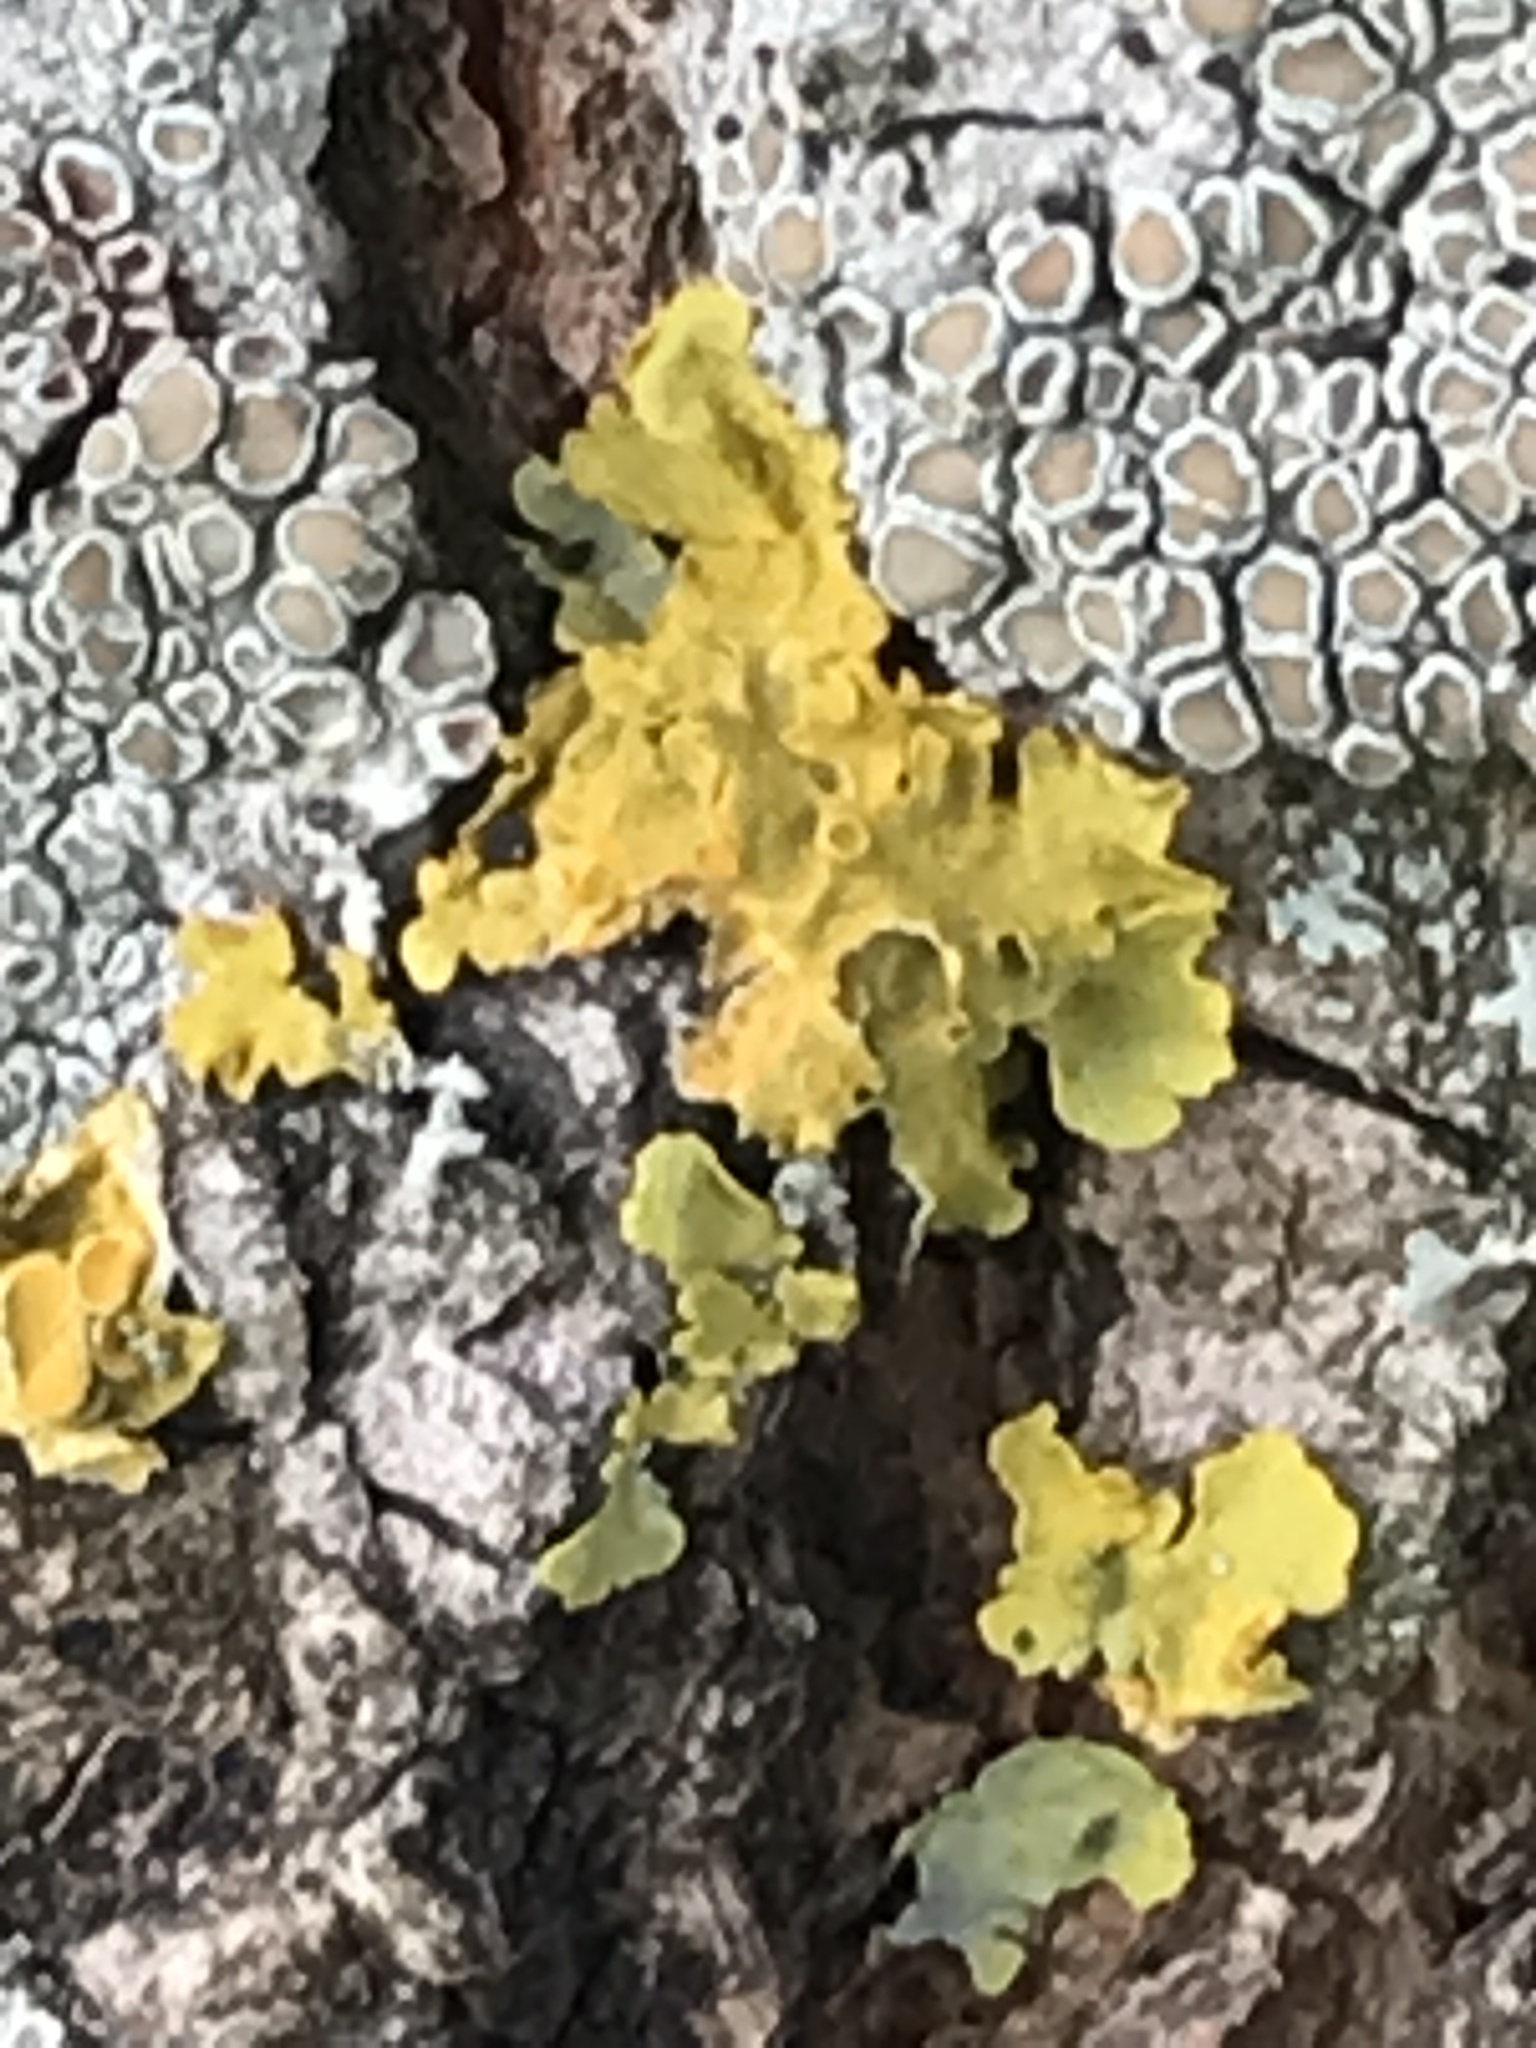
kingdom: Fungi
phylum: Ascomycota
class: Lecanoromycetes
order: Teloschistales
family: Teloschistaceae
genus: Xanthoria
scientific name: Xanthoria parietina
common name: Common orange lichen
